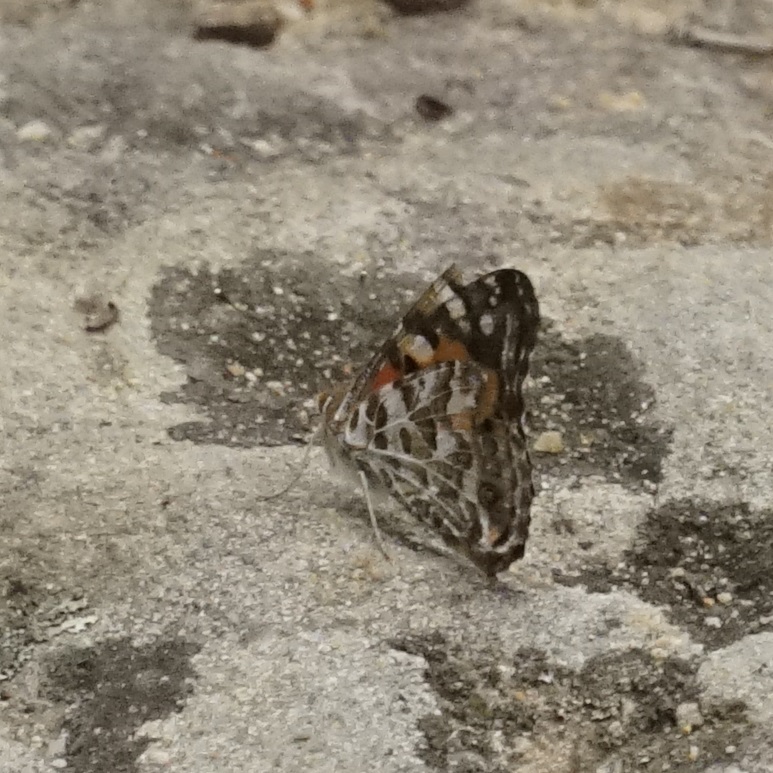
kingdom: Animalia
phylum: Arthropoda
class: Insecta
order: Lepidoptera
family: Nymphalidae
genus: Vanessa
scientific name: Vanessa kershawi
